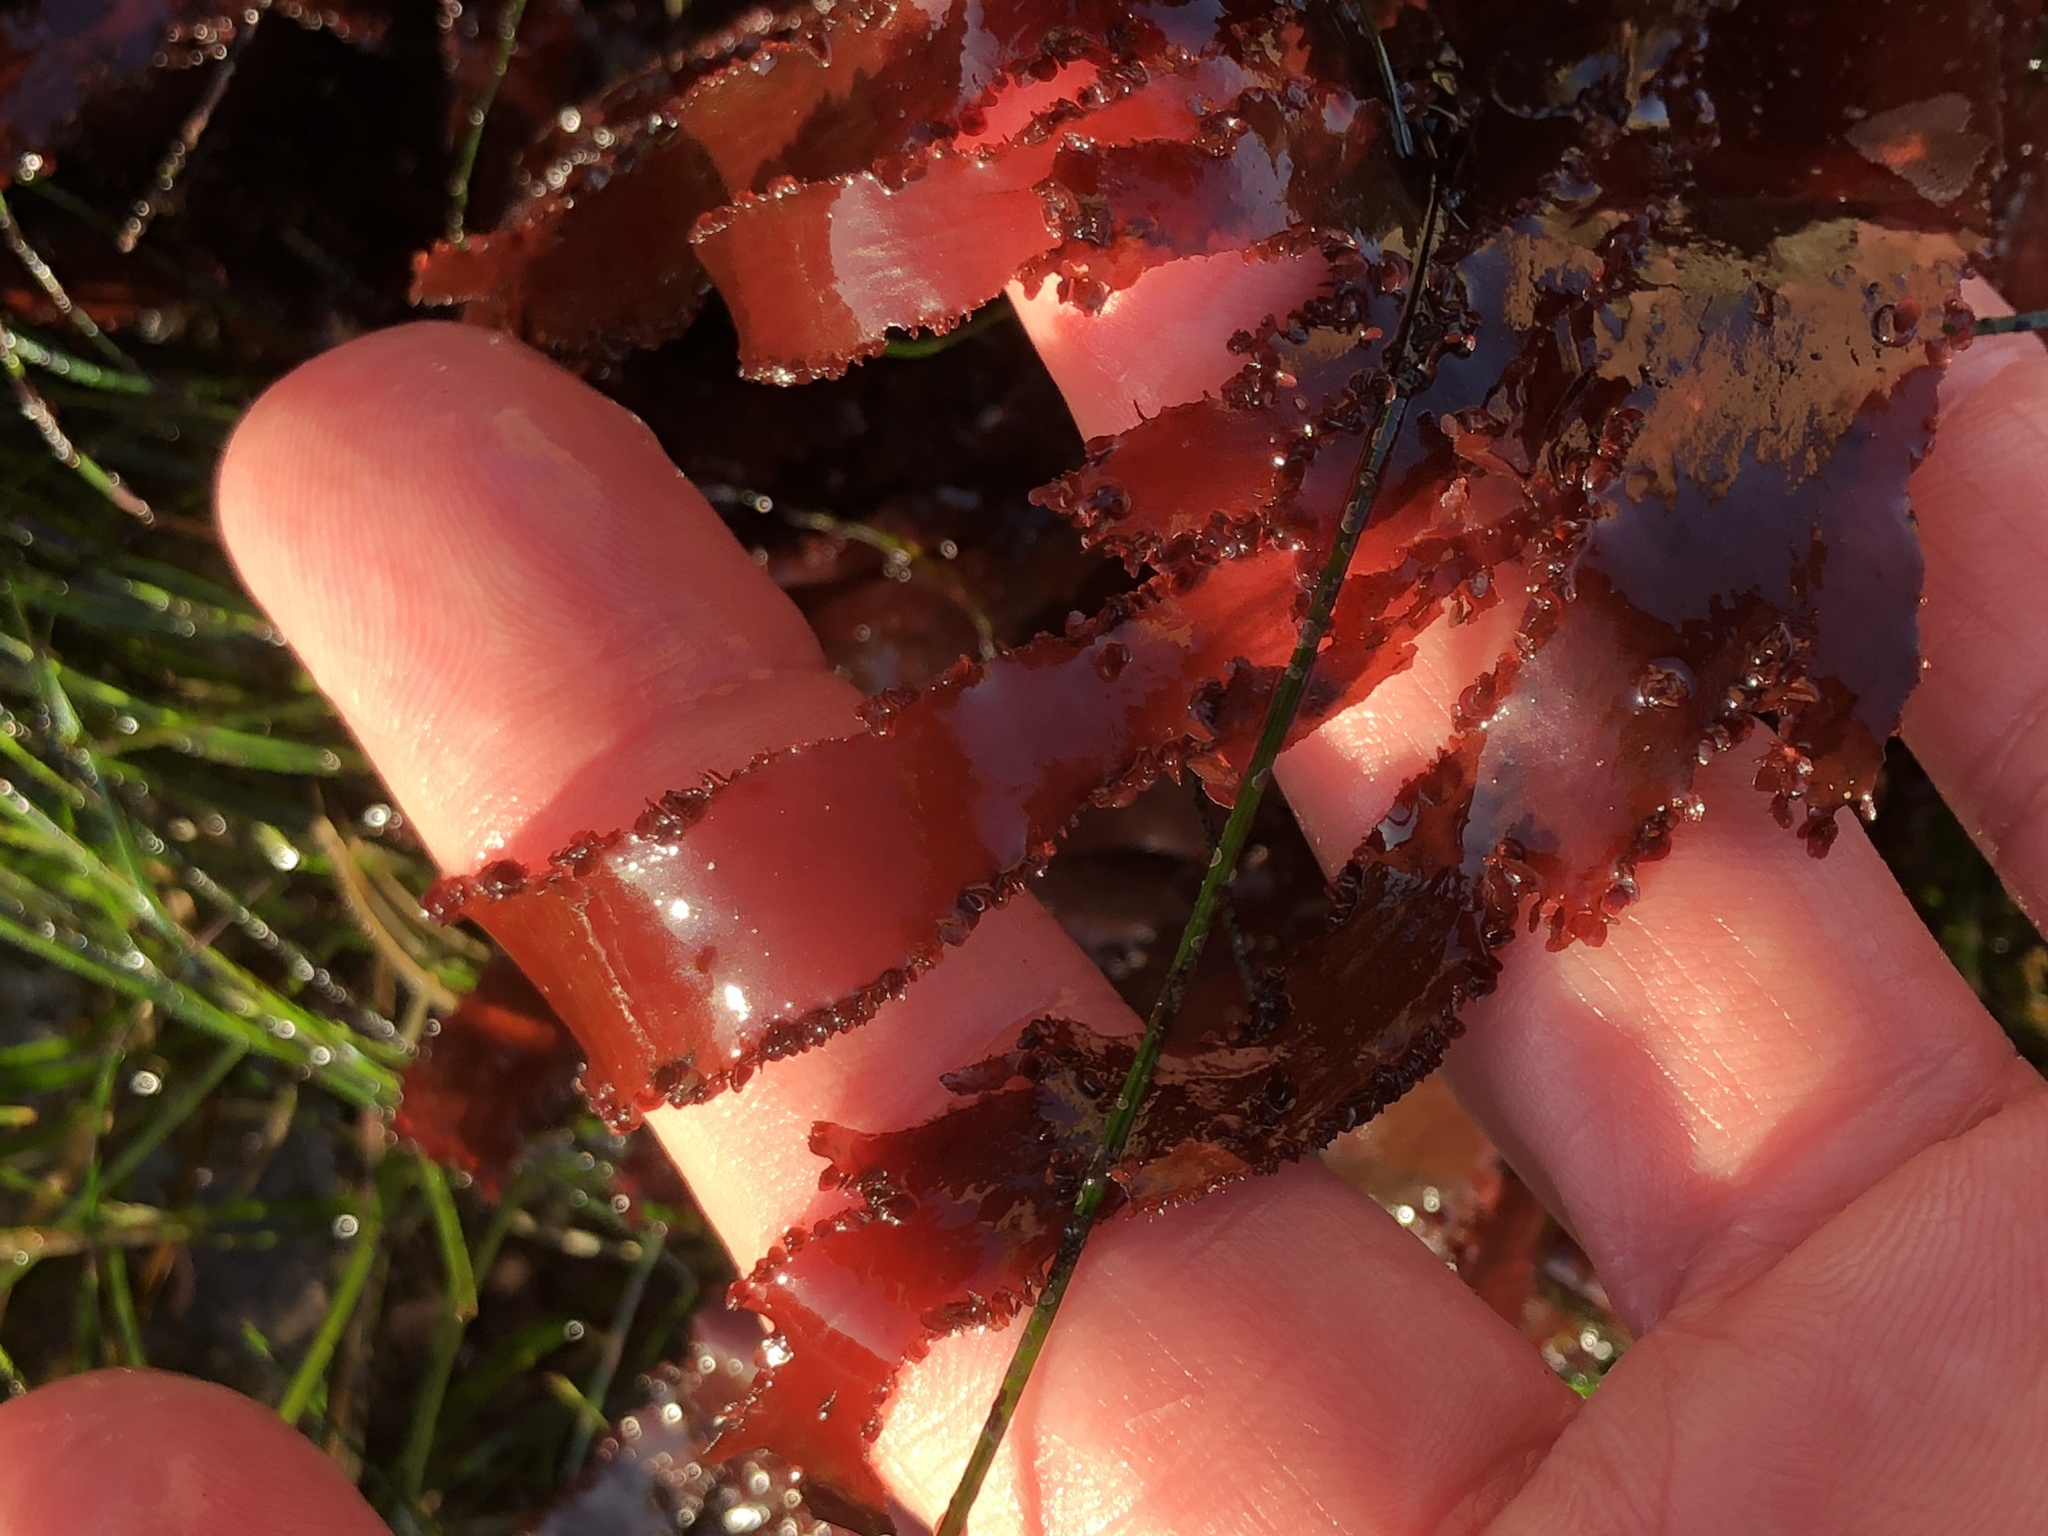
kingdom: Plantae
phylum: Rhodophyta
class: Florideophyceae
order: Ceramiales
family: Delesseriaceae
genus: Cryptopleura
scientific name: Cryptopleura ruprechtiana
